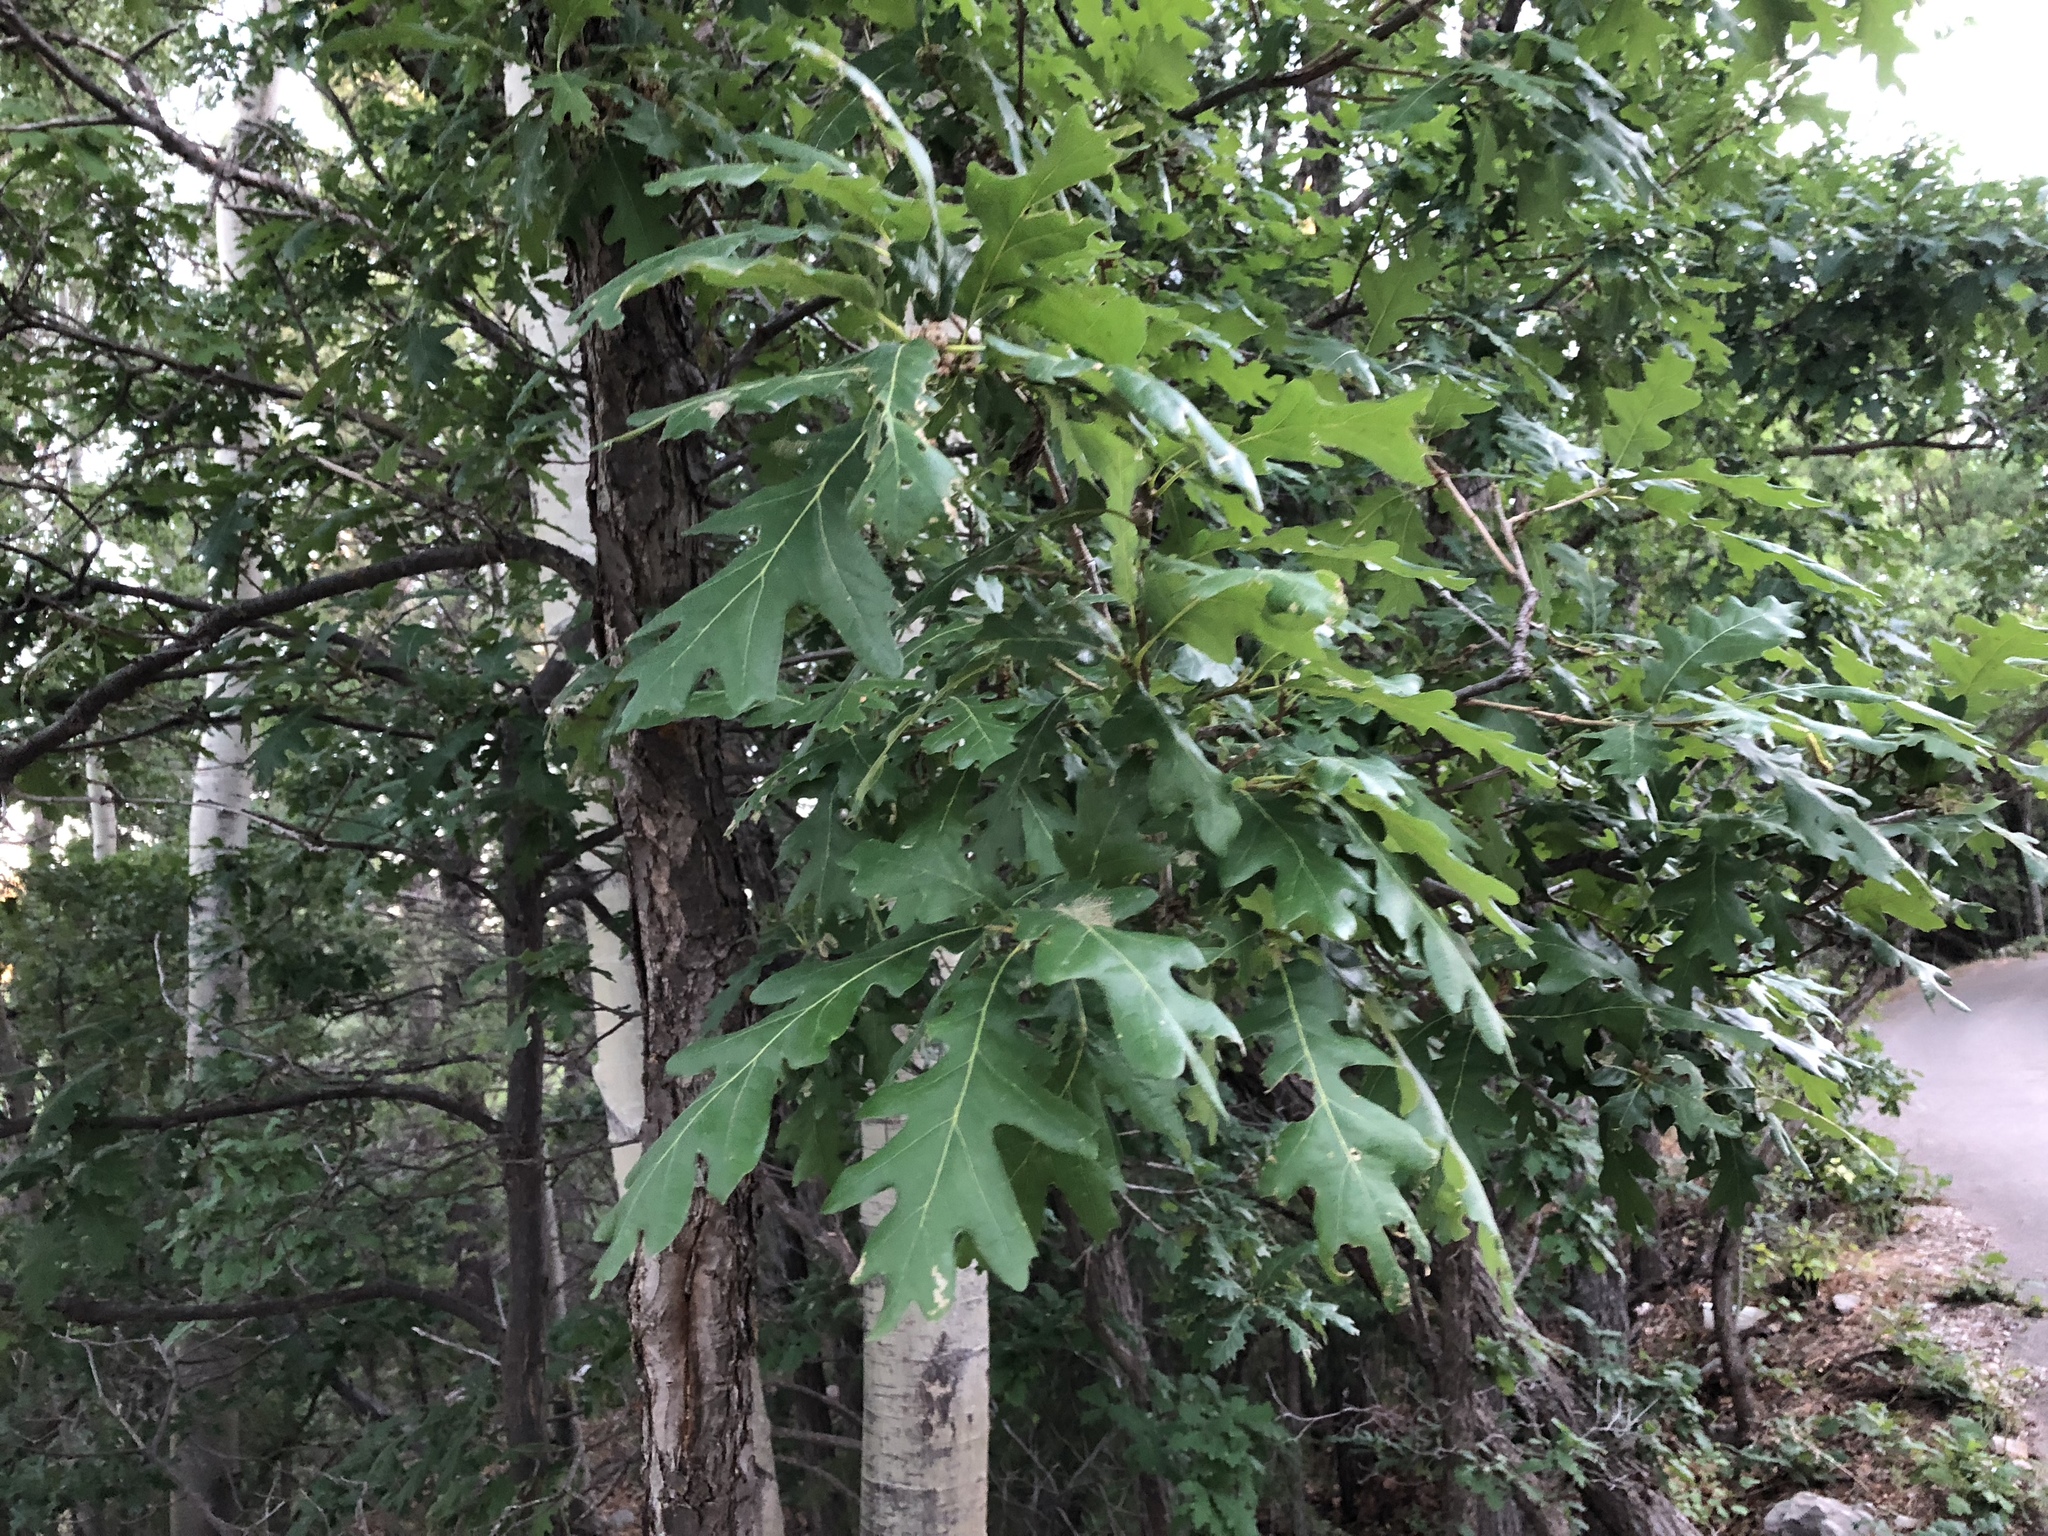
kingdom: Plantae
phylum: Tracheophyta
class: Magnoliopsida
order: Fagales
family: Fagaceae
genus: Quercus
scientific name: Quercus gambelii
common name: Gambel oak
